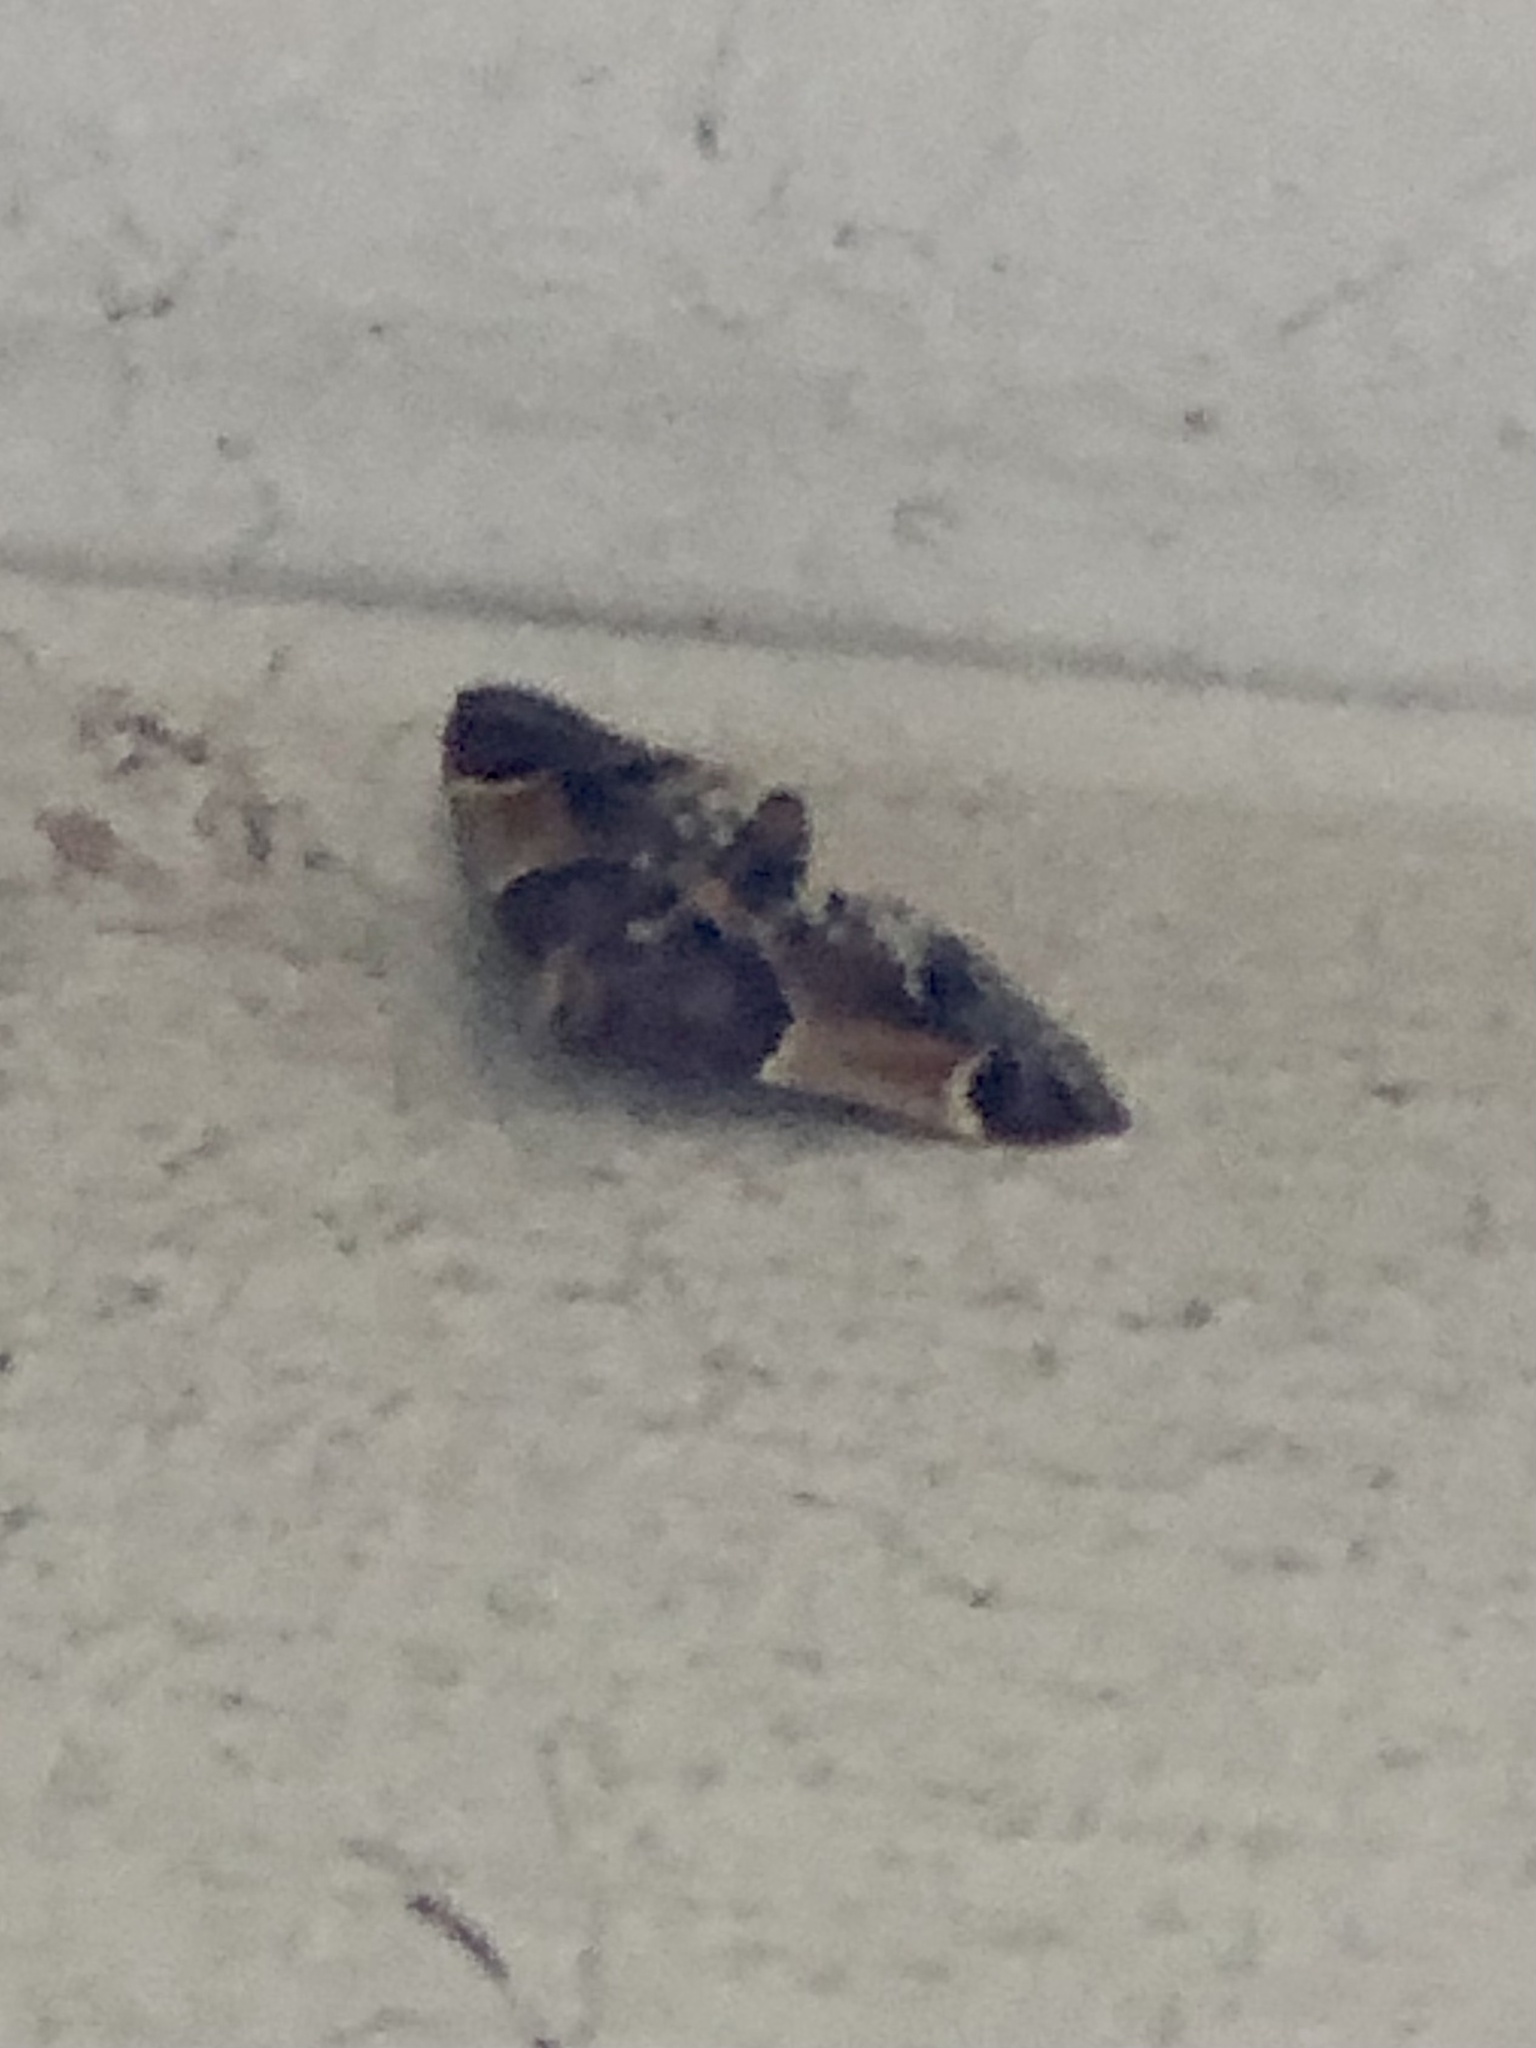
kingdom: Animalia
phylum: Arthropoda
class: Insecta
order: Lepidoptera
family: Pyralidae
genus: Pyralis
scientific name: Pyralis farinalis
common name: Meal moth
